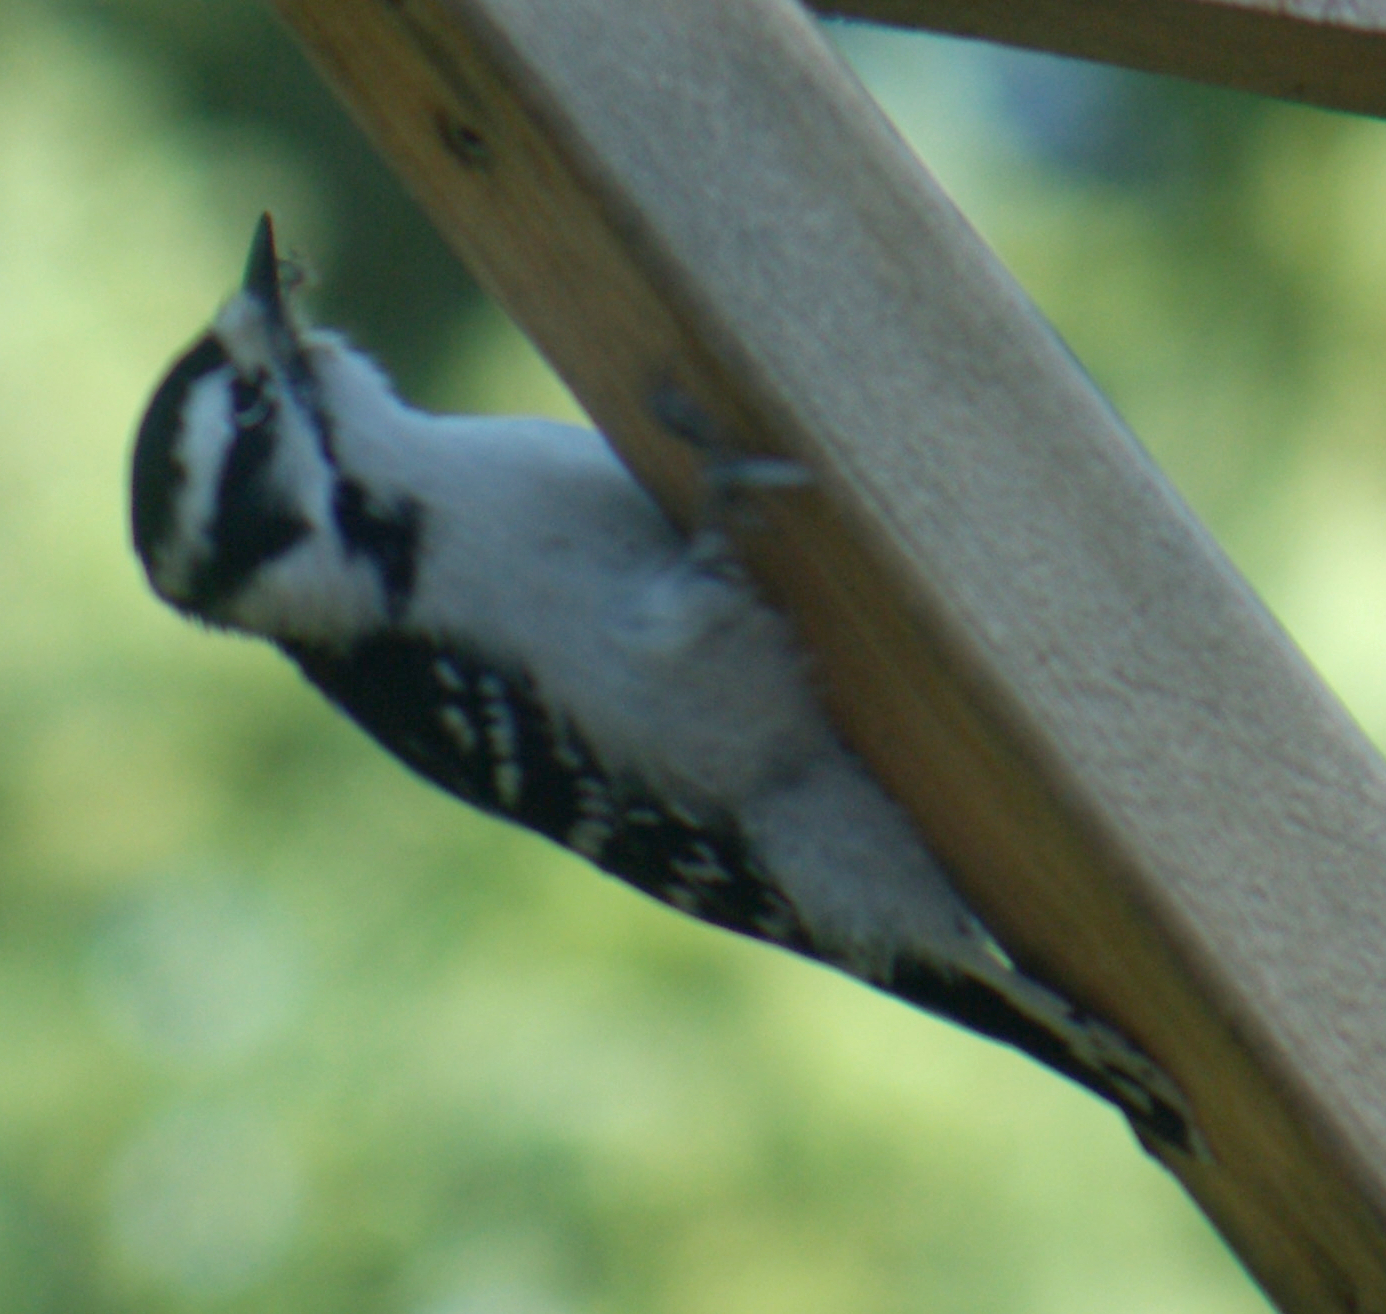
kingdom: Animalia
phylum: Chordata
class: Aves
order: Piciformes
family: Picidae
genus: Dryobates
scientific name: Dryobates pubescens
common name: Downy woodpecker
